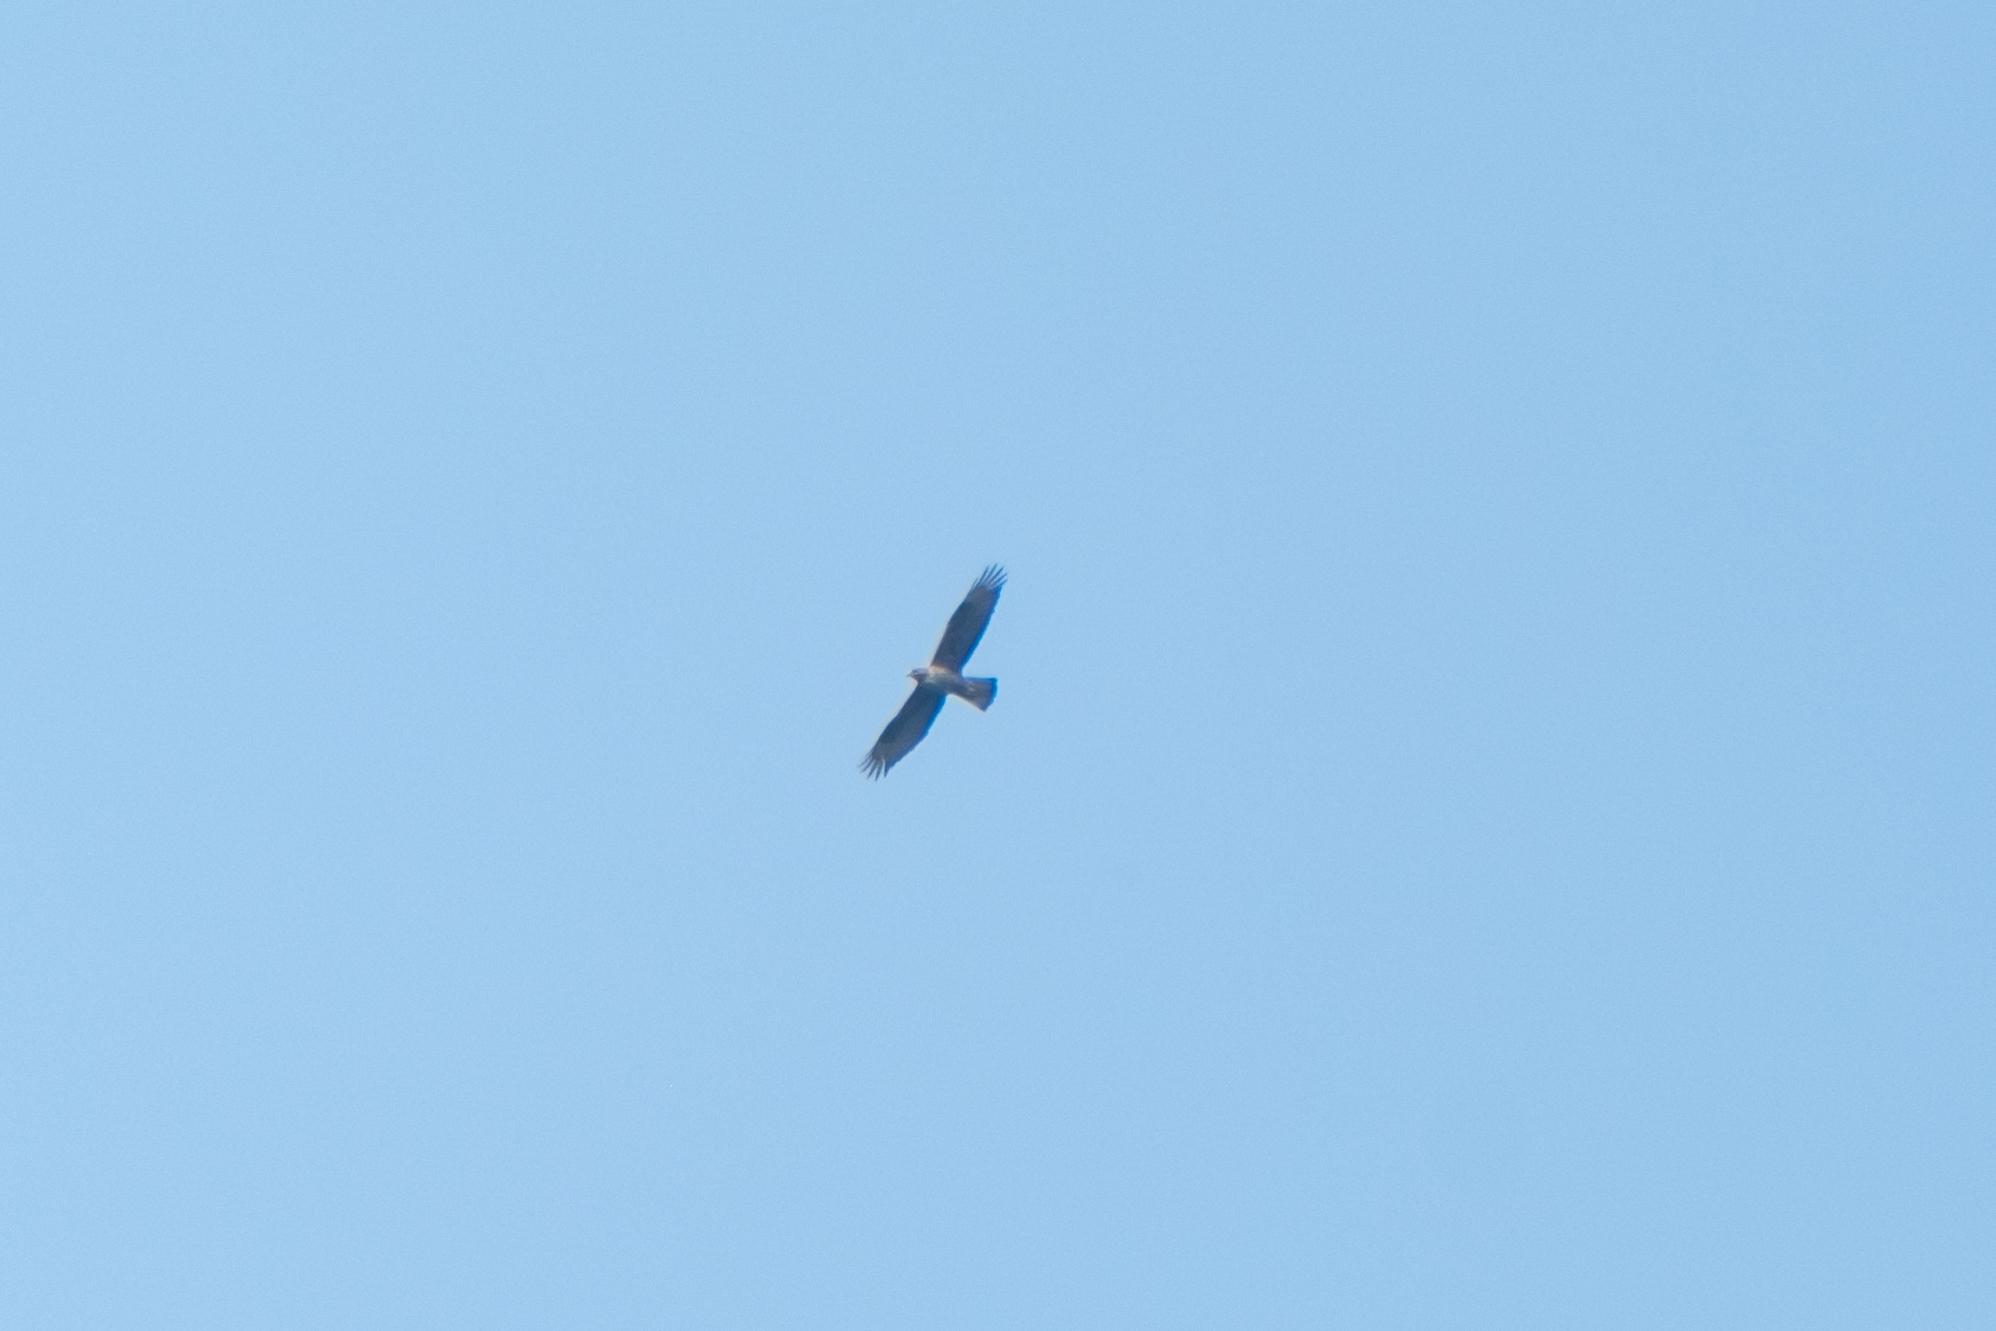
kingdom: Animalia
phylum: Chordata
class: Aves
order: Accipitriformes
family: Accipitridae
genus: Aquila
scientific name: Aquila fasciata
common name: Bonelli's eagle
